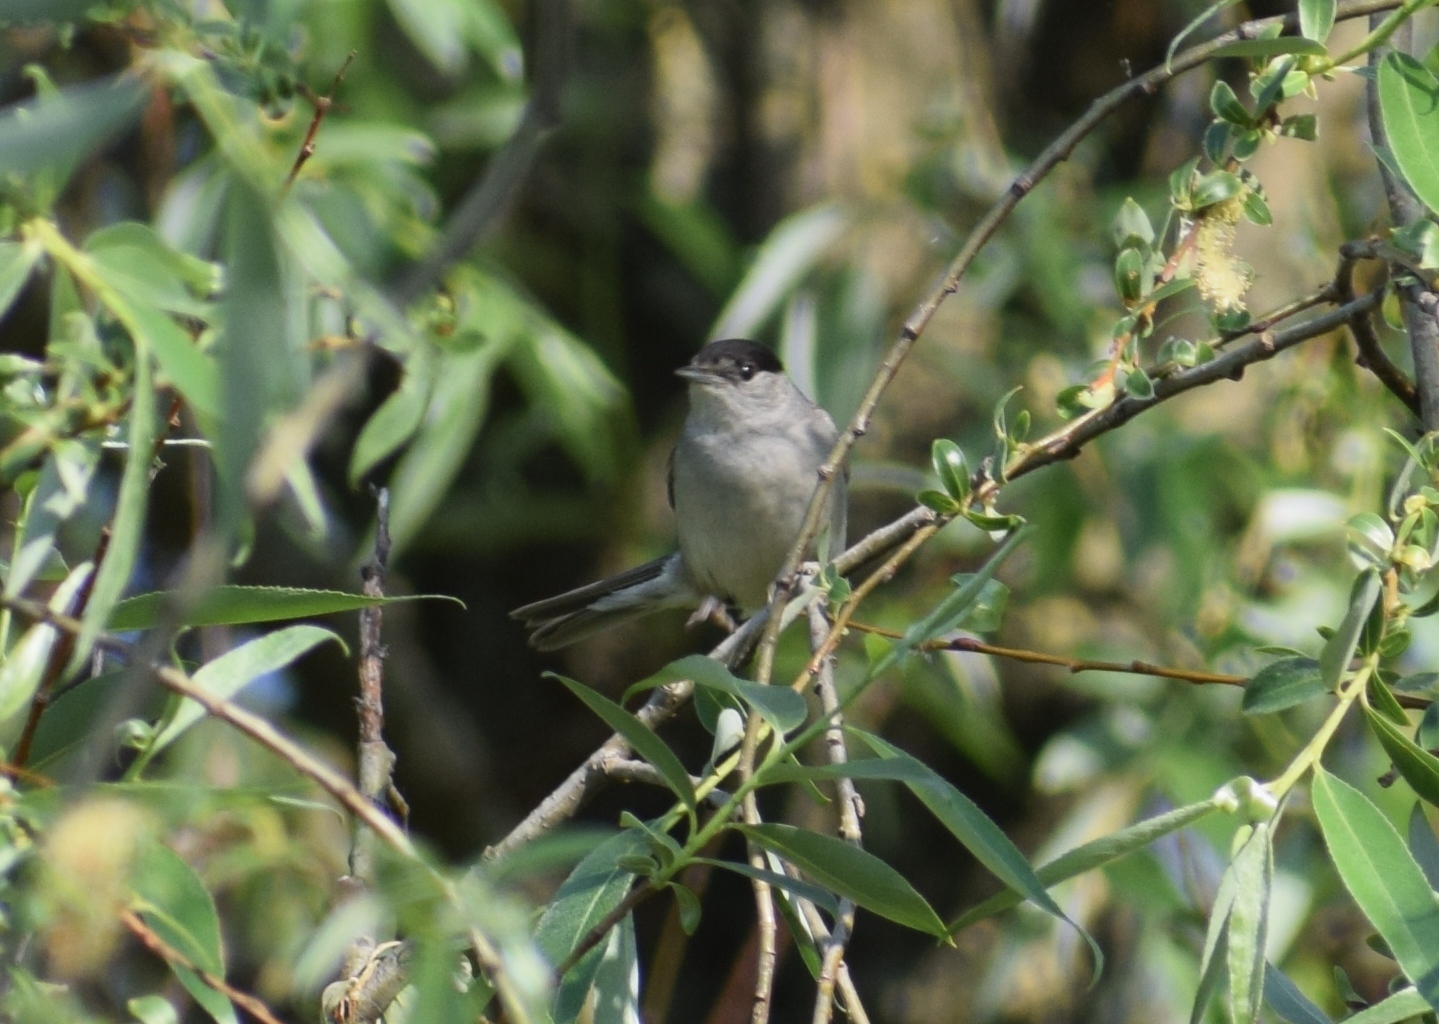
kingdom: Animalia
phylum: Chordata
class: Aves
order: Passeriformes
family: Sylviidae
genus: Sylvia
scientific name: Sylvia atricapilla
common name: Eurasian blackcap
